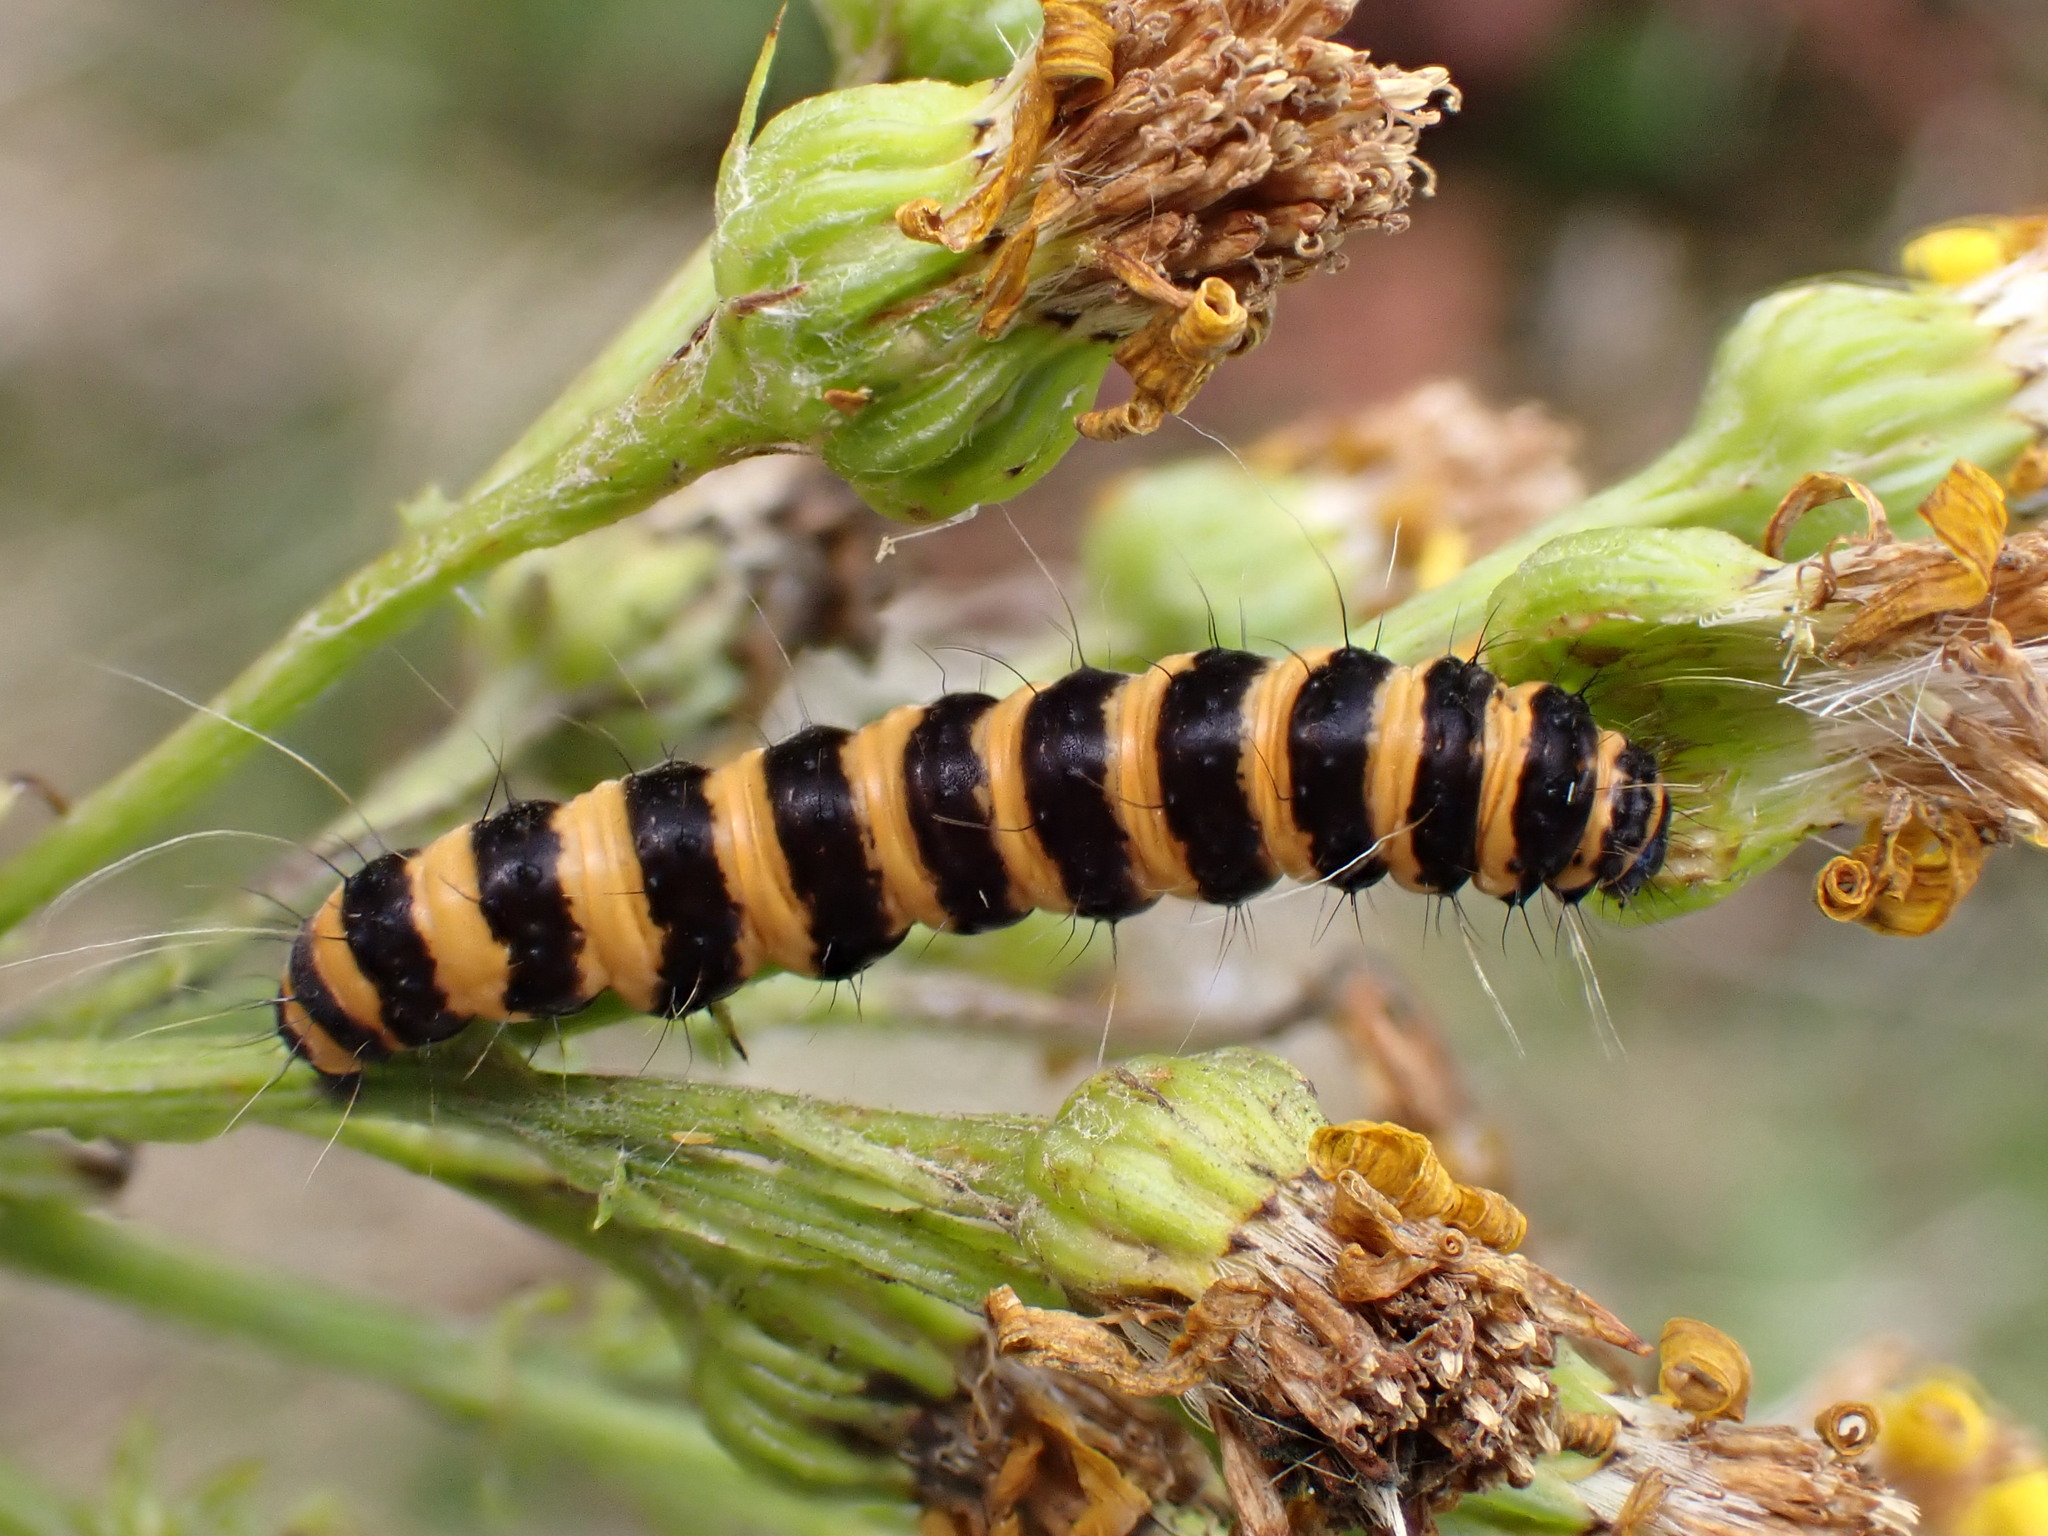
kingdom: Animalia
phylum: Arthropoda
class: Insecta
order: Lepidoptera
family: Erebidae
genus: Tyria
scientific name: Tyria jacobaeae
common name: Cinnabar
